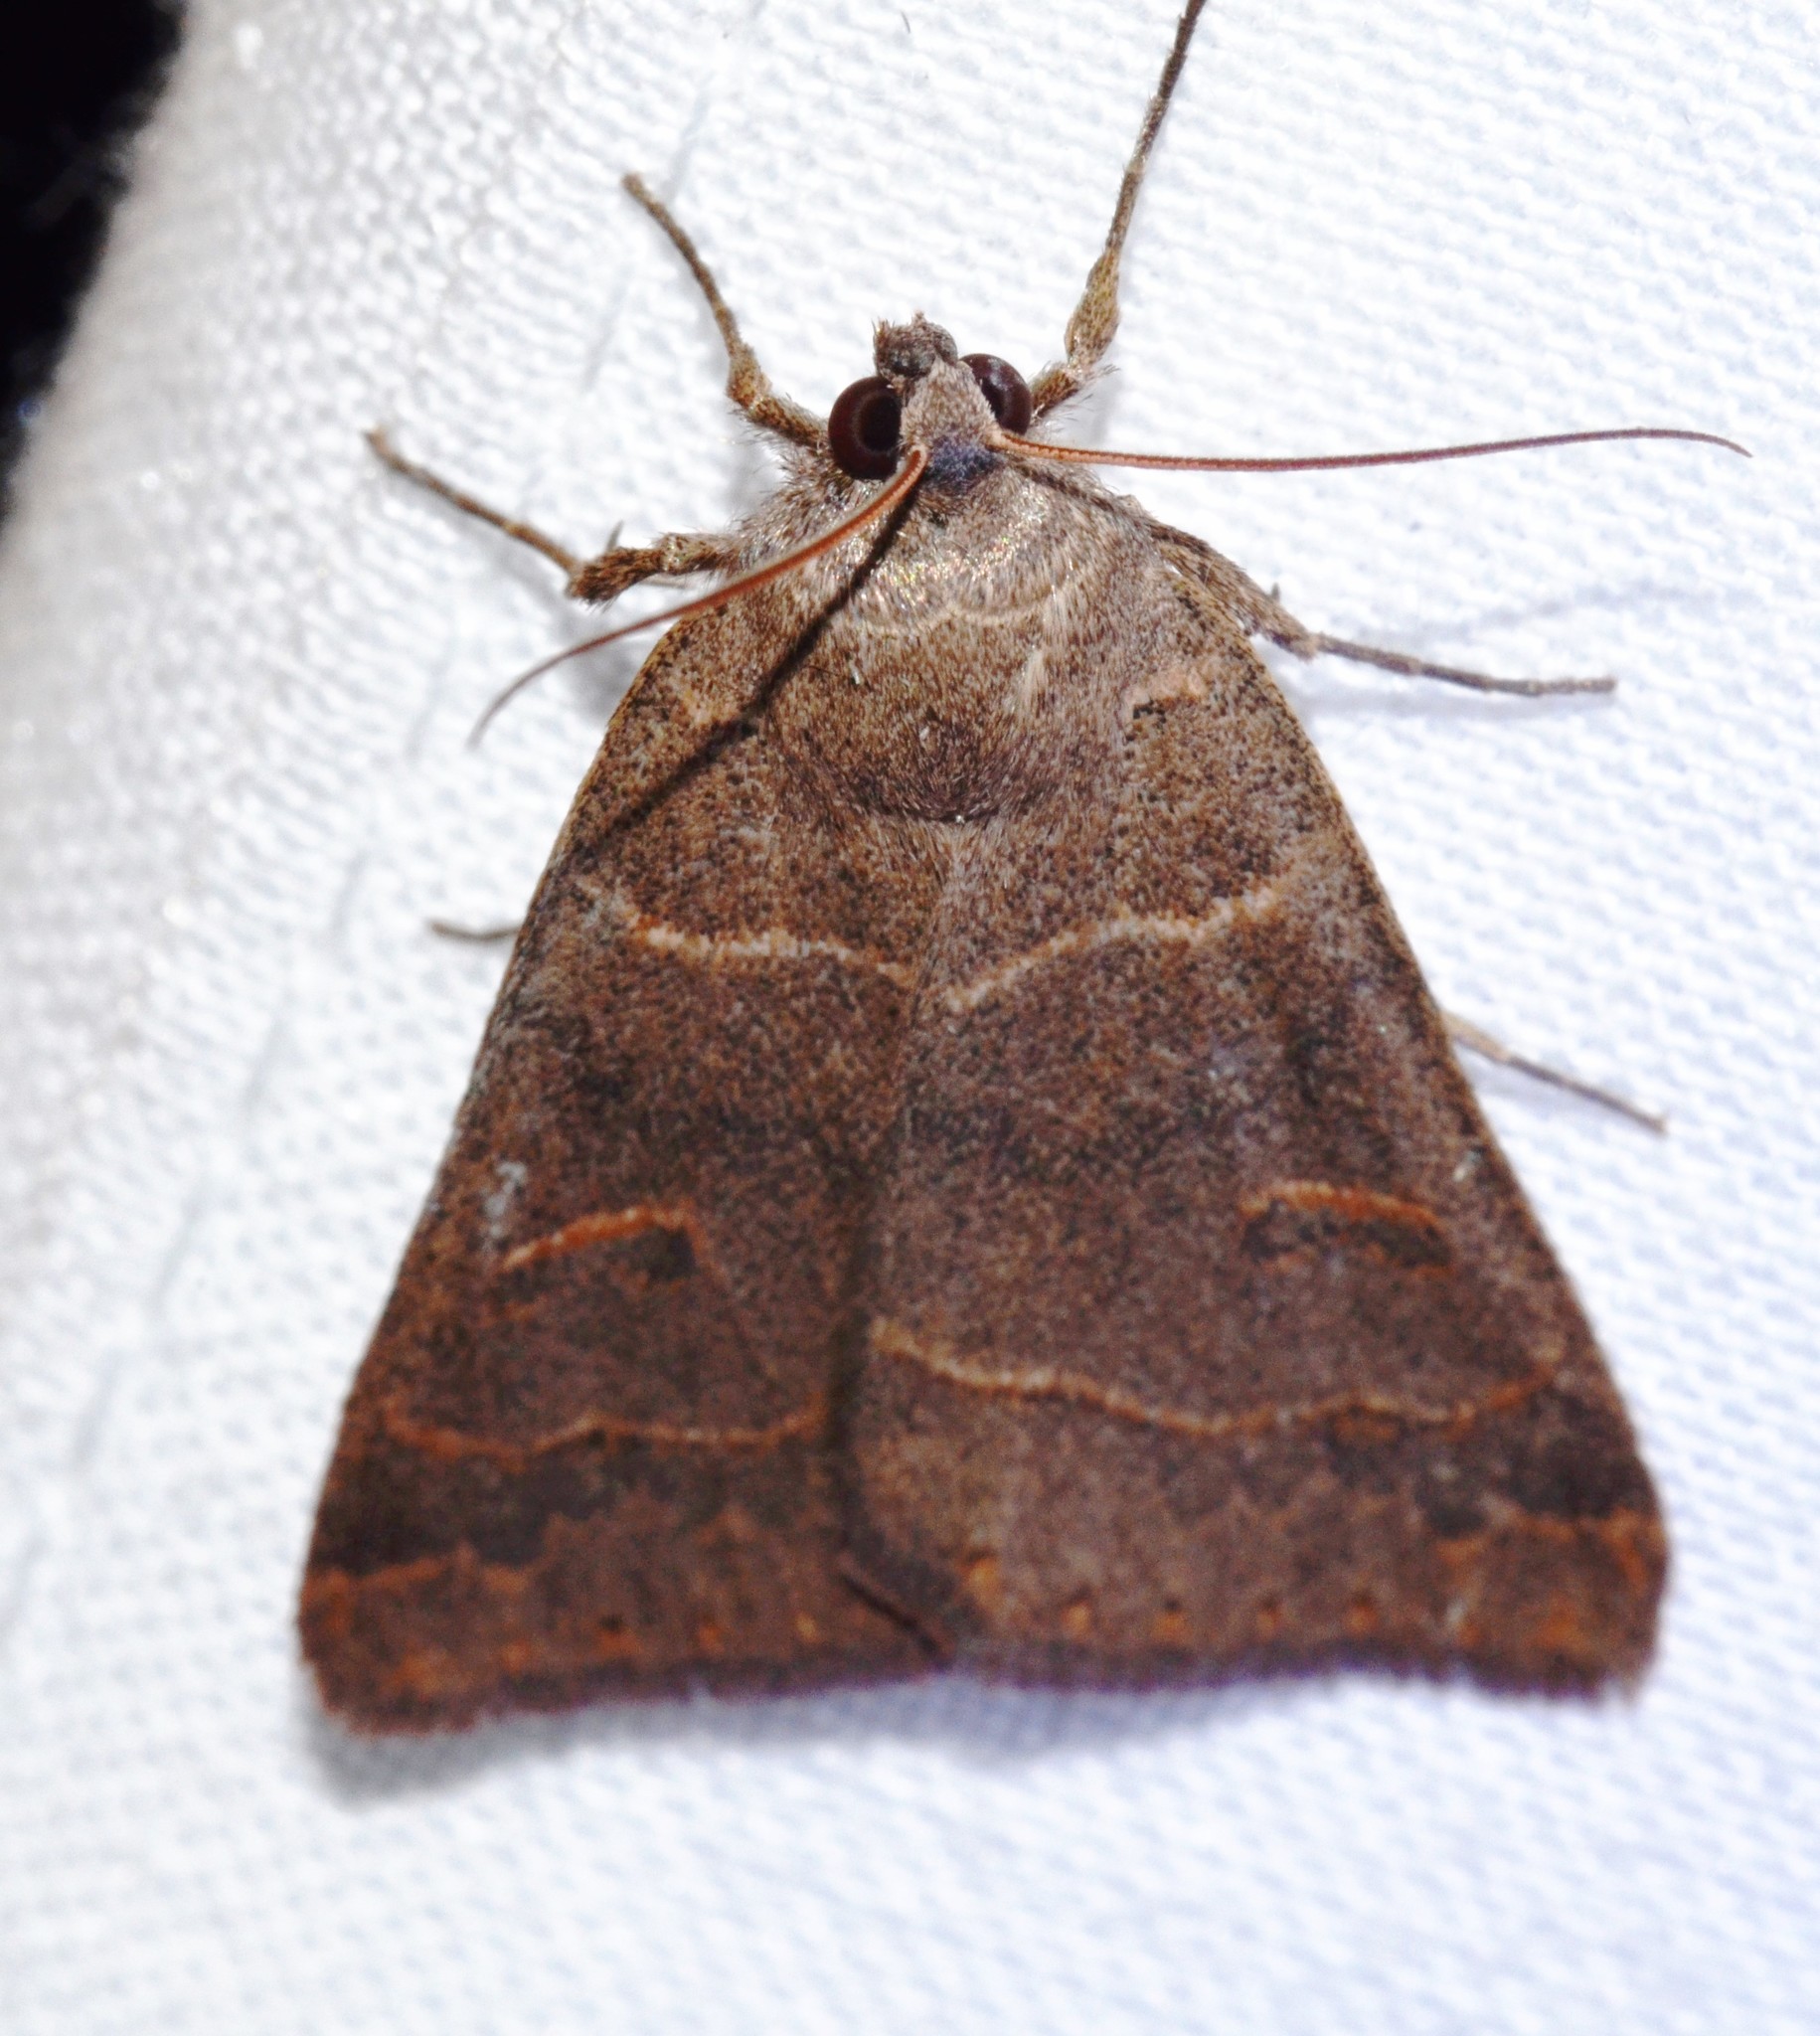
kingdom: Animalia
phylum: Arthropoda
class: Insecta
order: Lepidoptera
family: Erebidae
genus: Phoberia
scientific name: Phoberia atomaris
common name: Common oak moth
